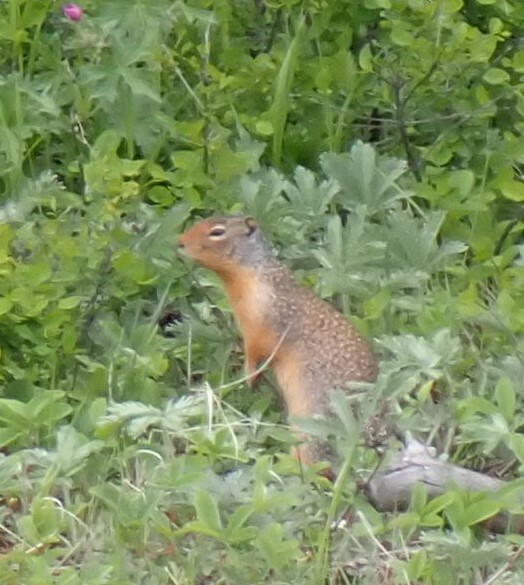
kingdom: Animalia
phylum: Chordata
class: Mammalia
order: Rodentia
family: Sciuridae
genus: Urocitellus
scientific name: Urocitellus columbianus
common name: Columbian ground squirrel
